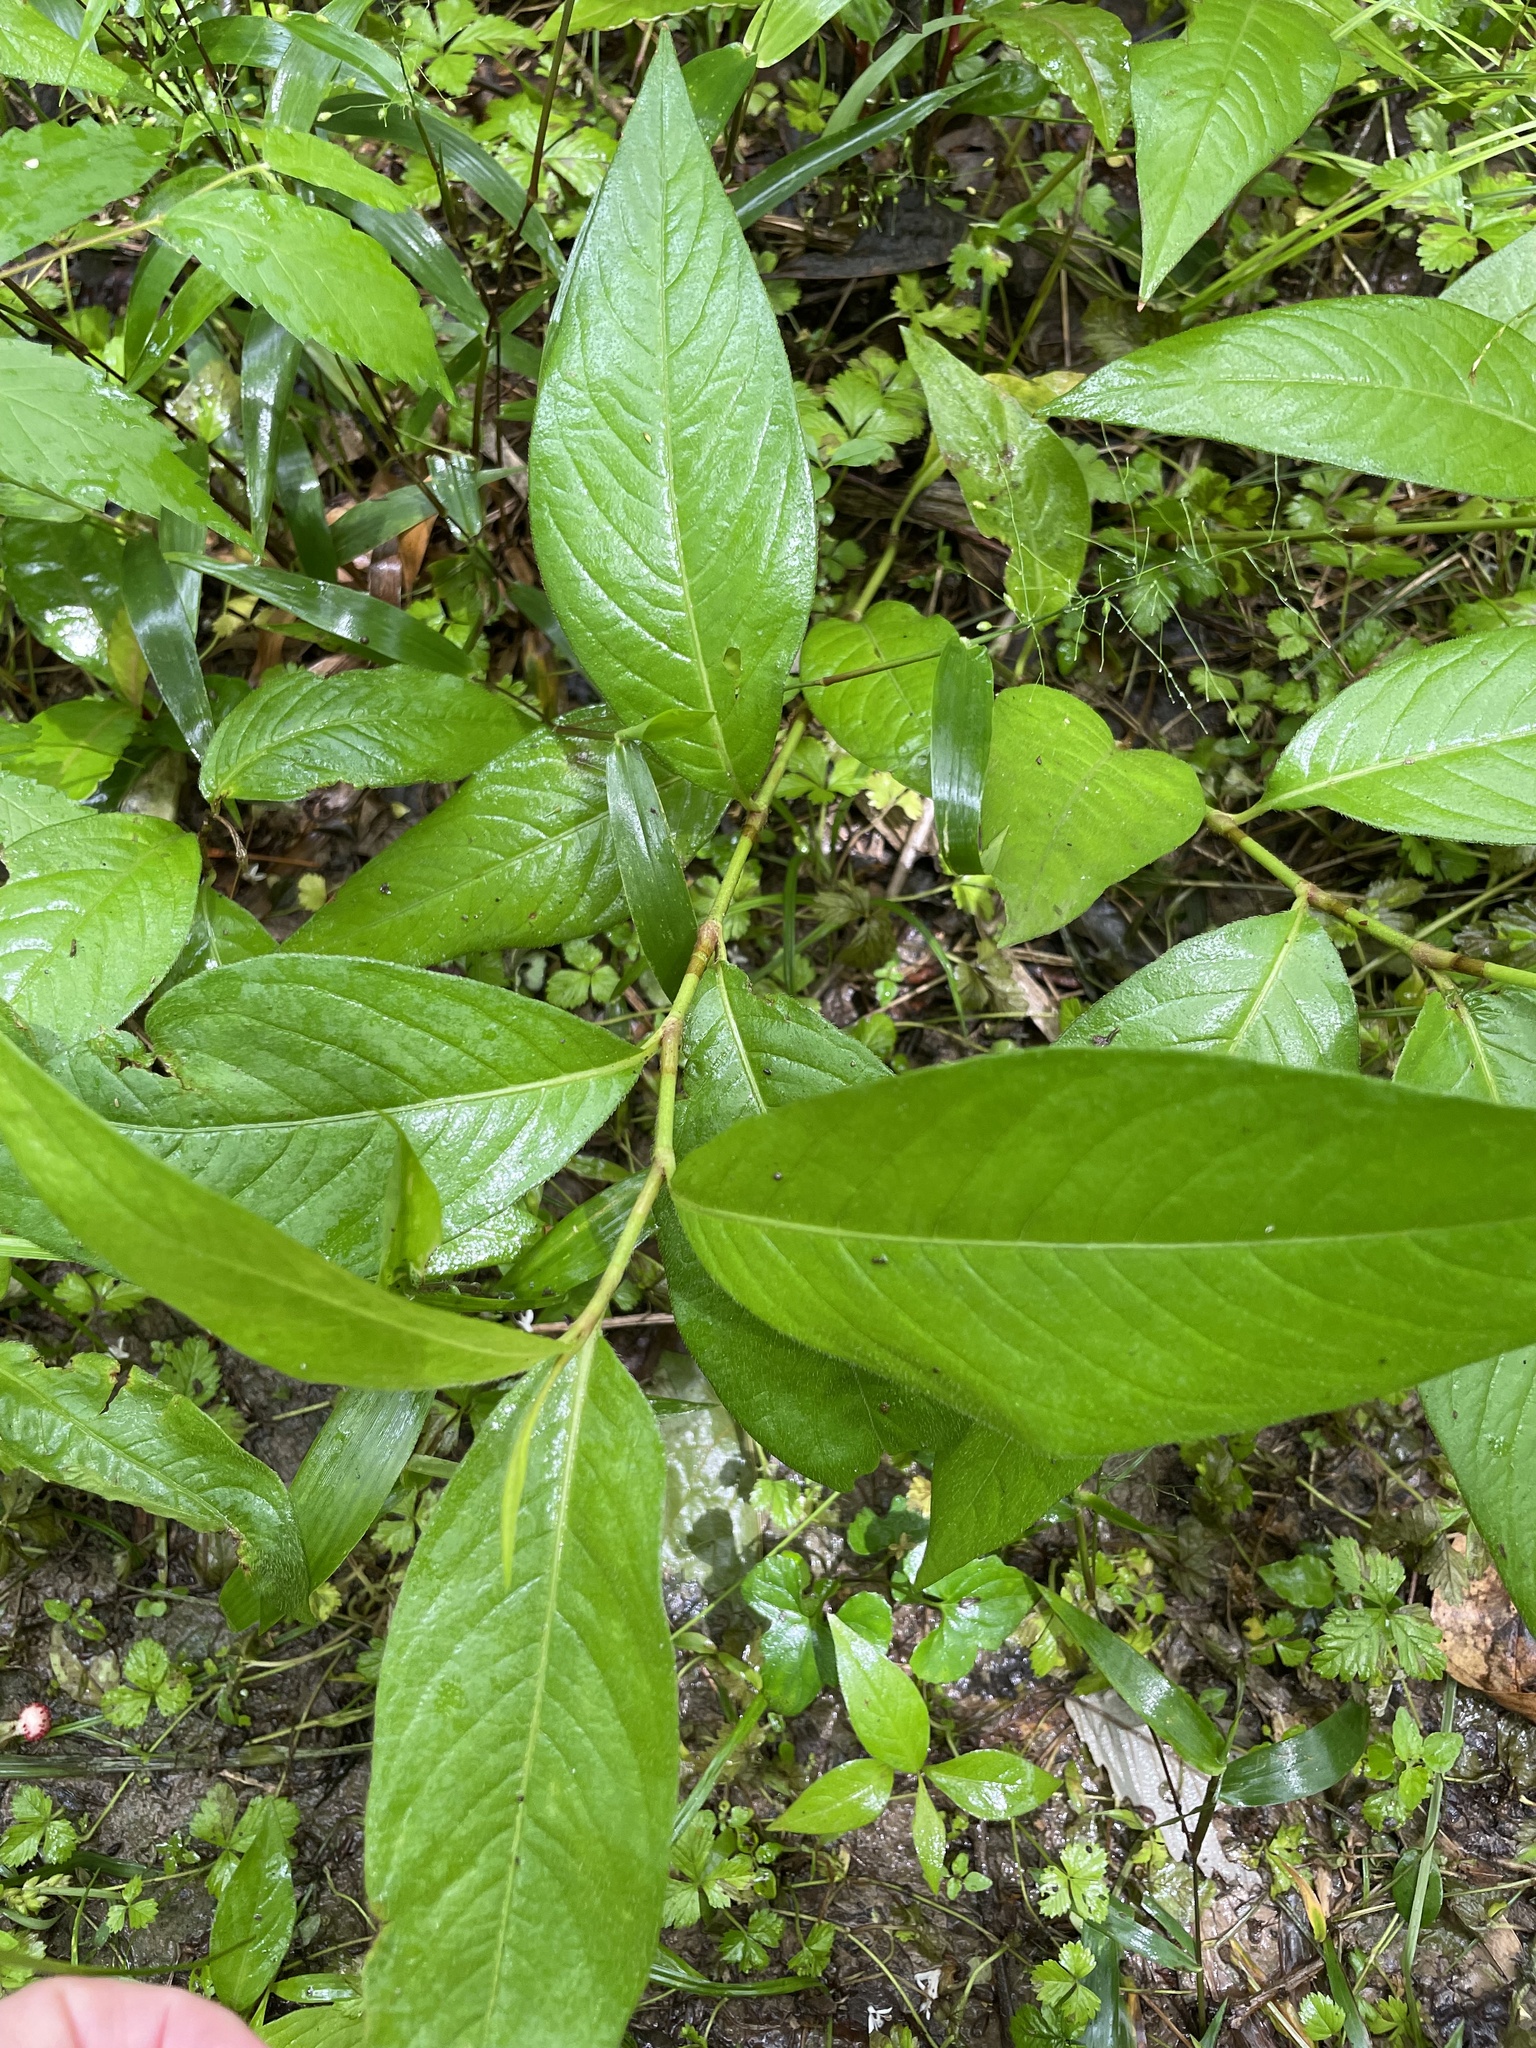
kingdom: Plantae
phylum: Tracheophyta
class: Magnoliopsida
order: Caryophyllales
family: Polygonaceae
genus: Persicaria
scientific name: Persicaria virginiana
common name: Jumpseed
